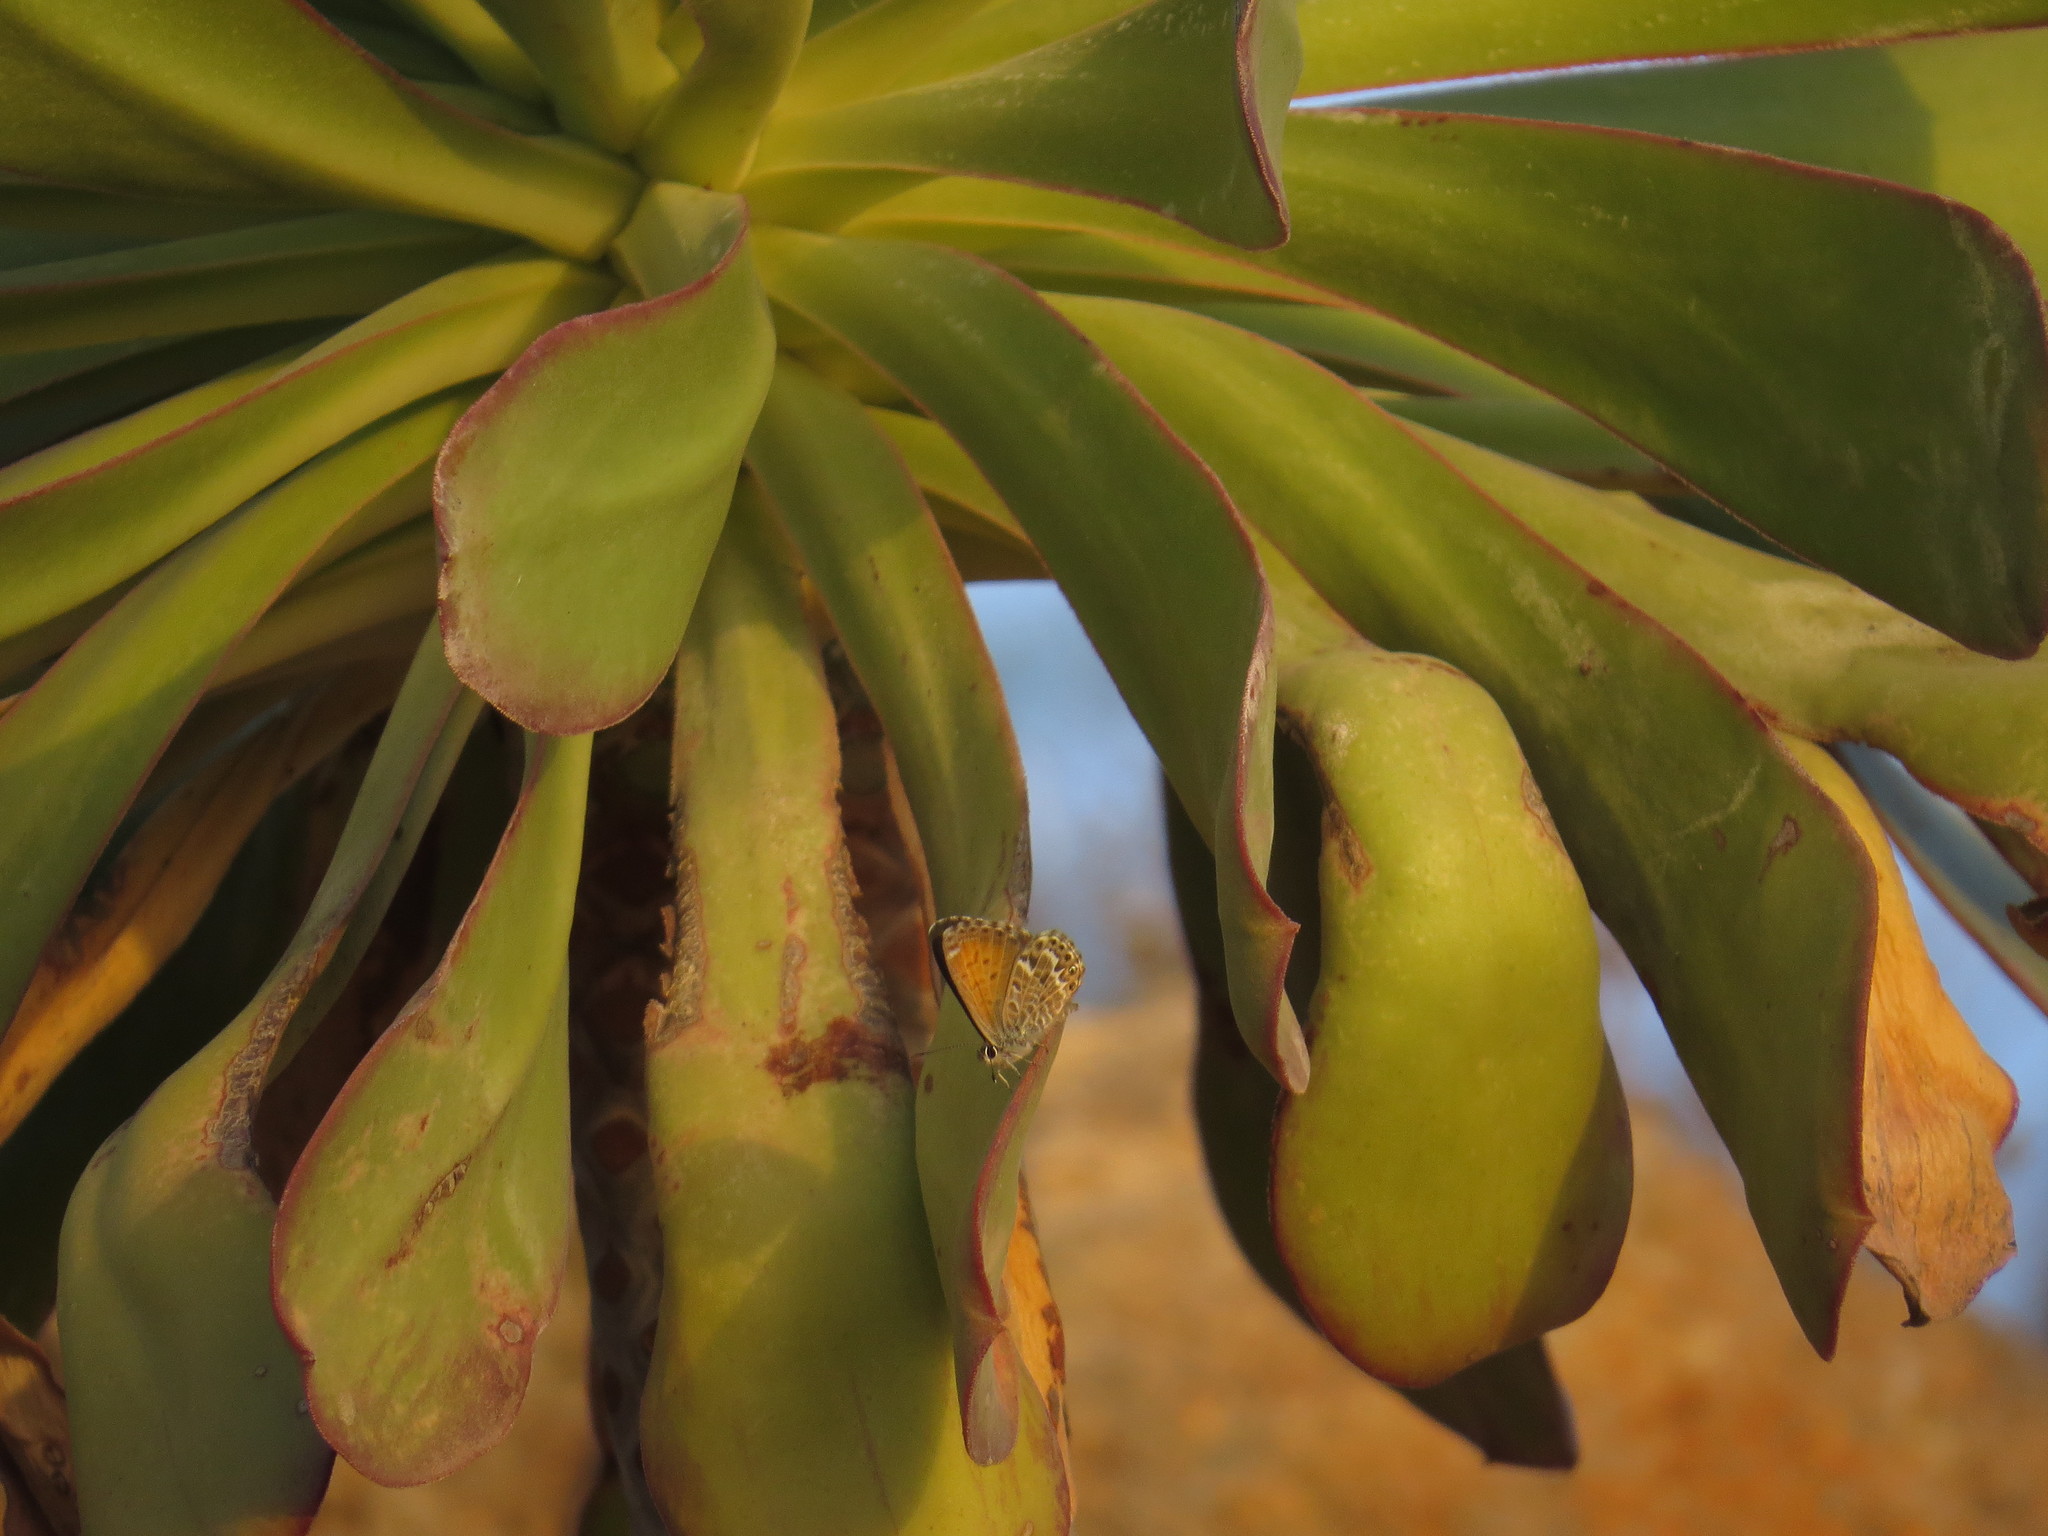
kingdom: Animalia
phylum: Arthropoda
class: Insecta
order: Lepidoptera
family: Lycaenidae
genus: Cyclyrius
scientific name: Cyclyrius webbianus
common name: Canary blue
